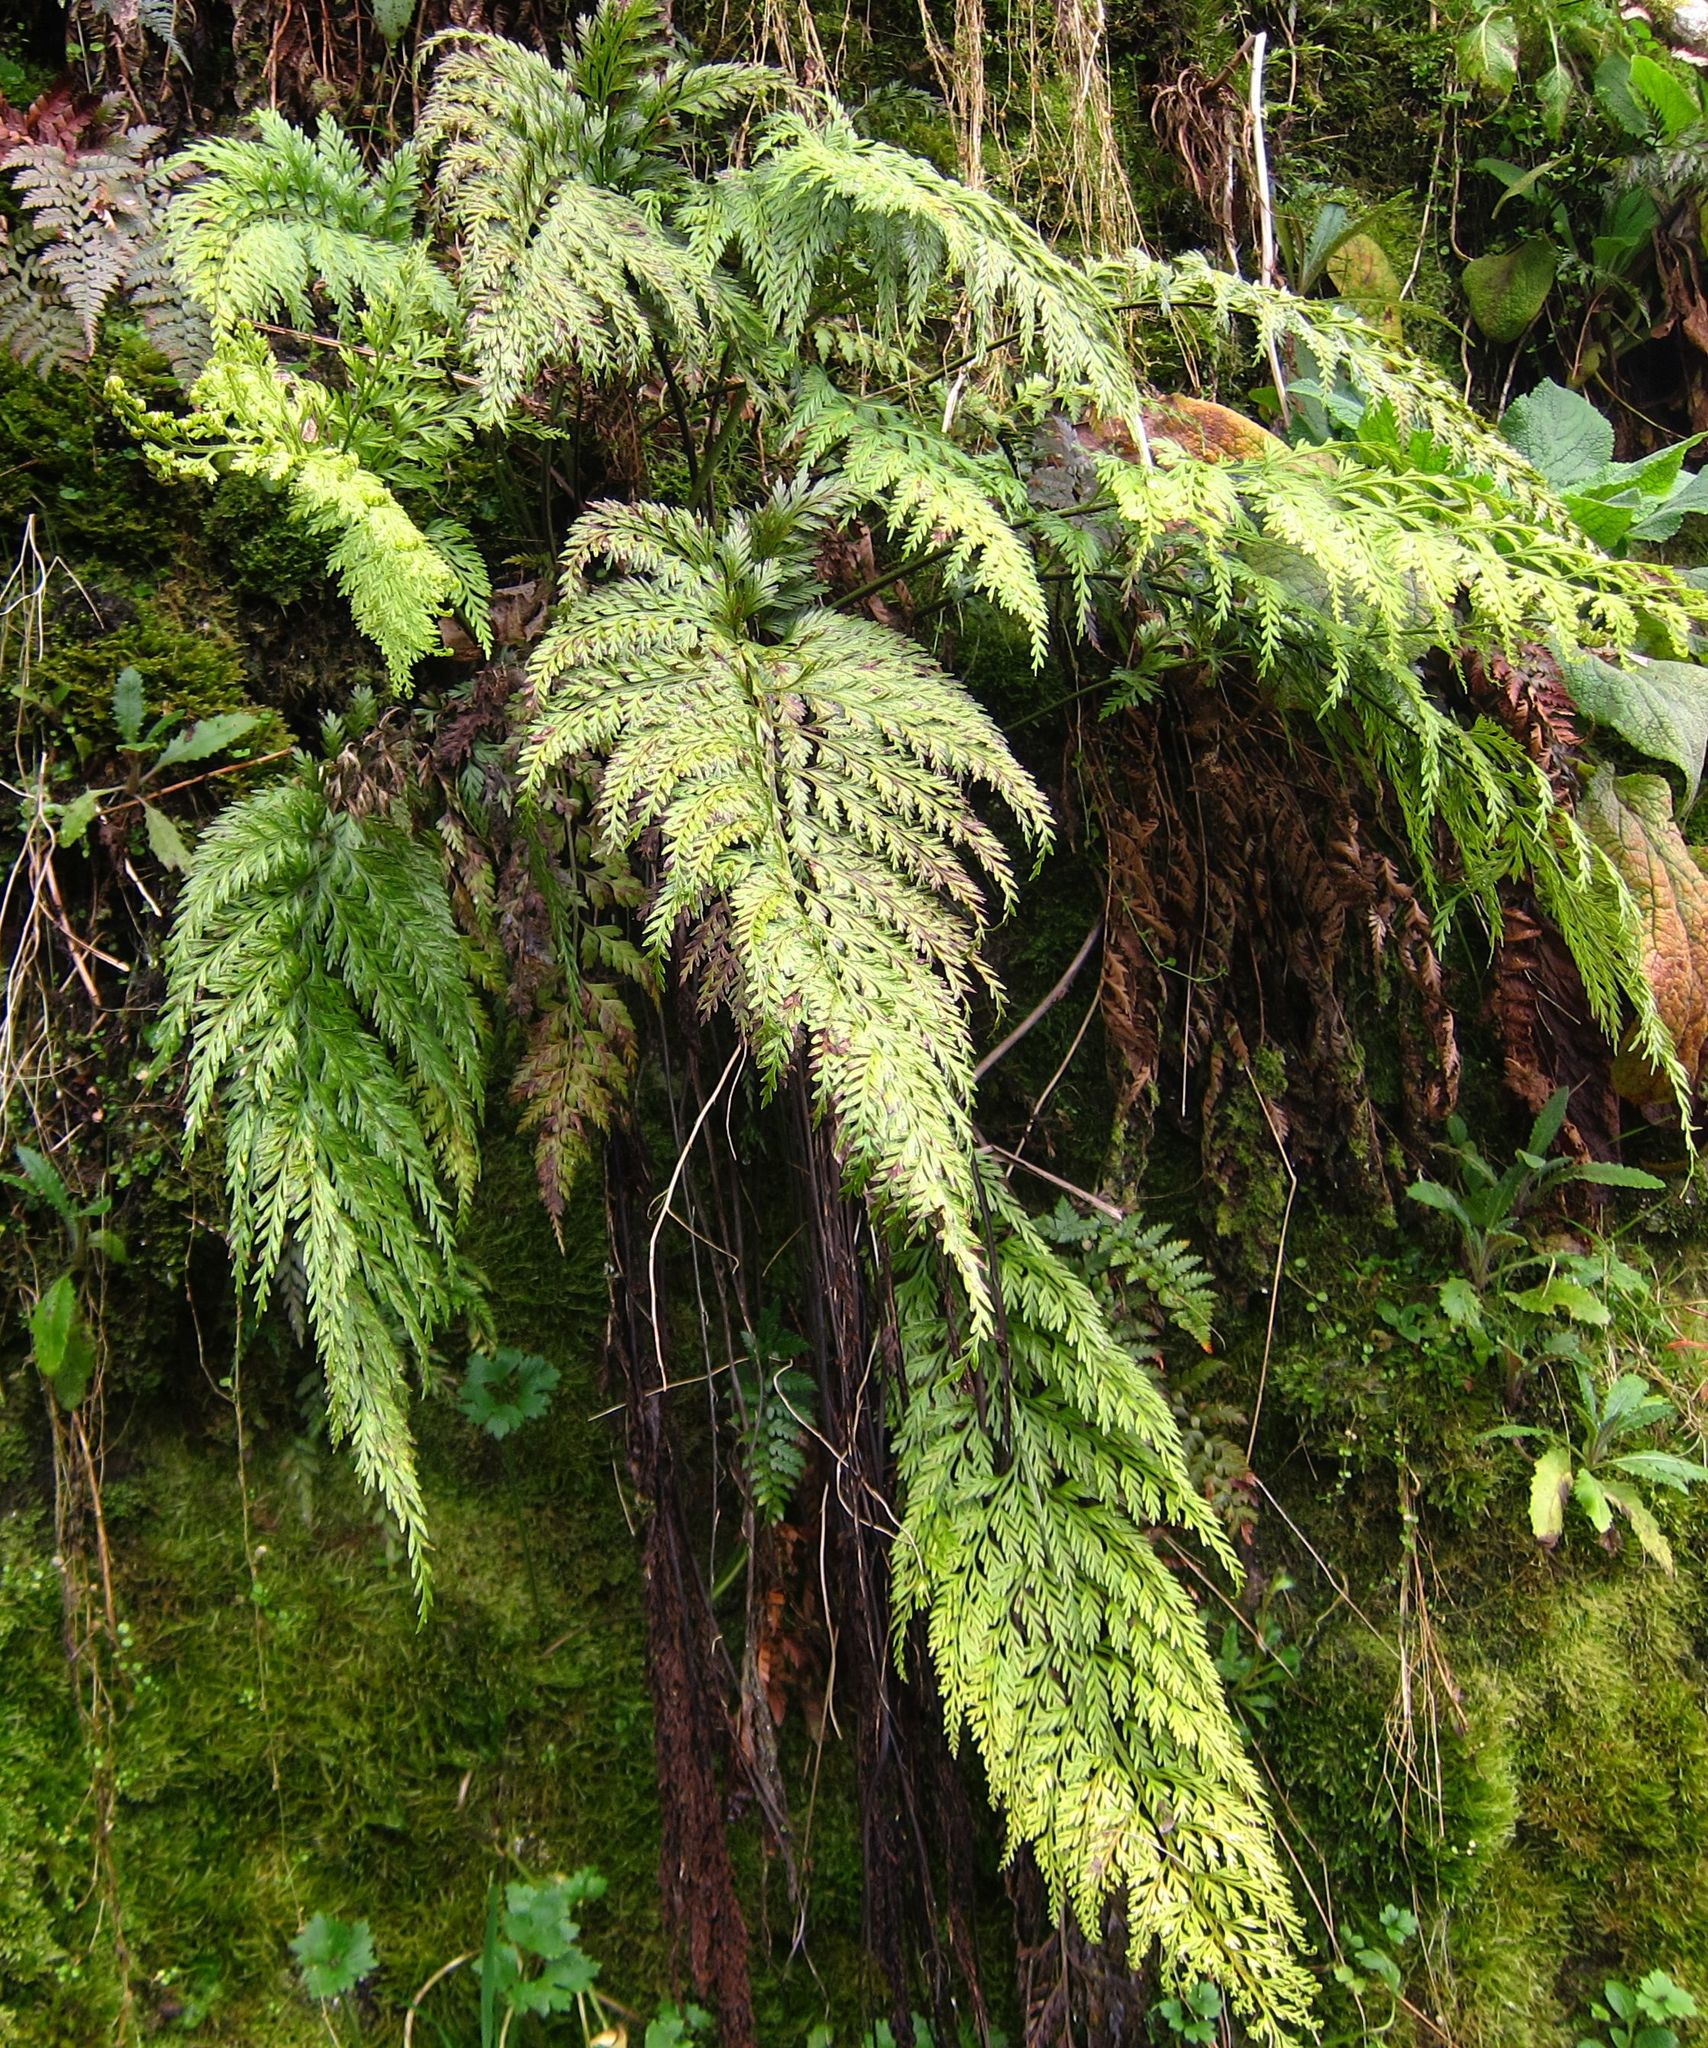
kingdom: Plantae
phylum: Tracheophyta
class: Polypodiopsida
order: Polypodiales
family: Aspleniaceae
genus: Asplenium
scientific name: Asplenium appendiculatum
